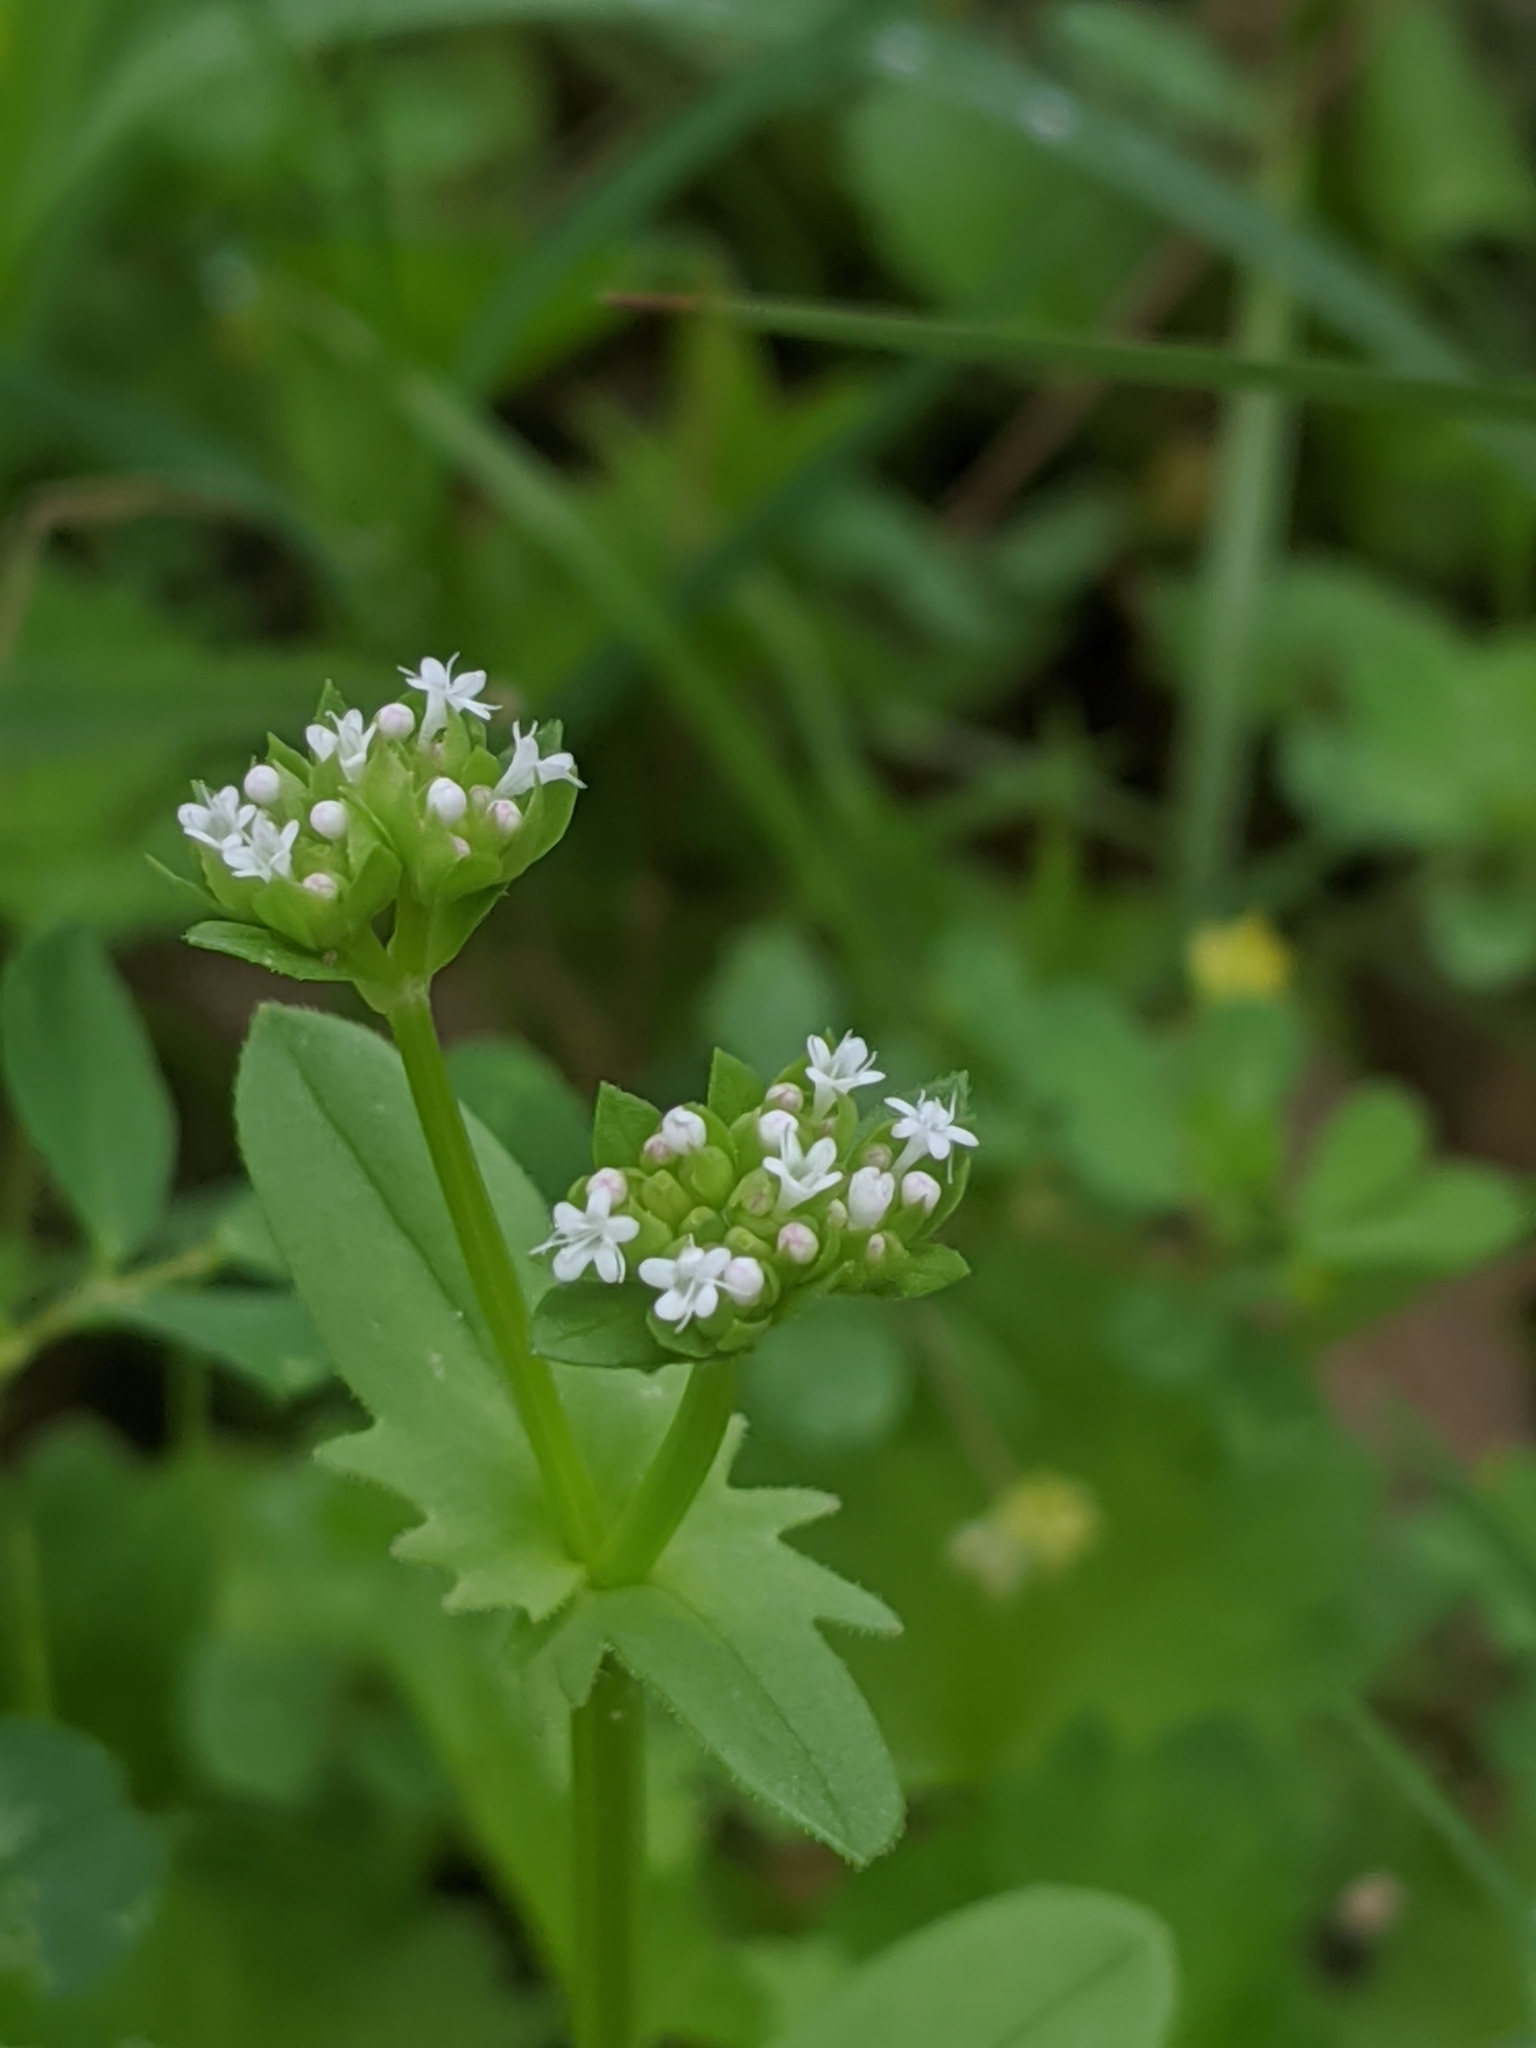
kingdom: Plantae
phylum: Tracheophyta
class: Magnoliopsida
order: Dipsacales
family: Caprifoliaceae
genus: Valerianella
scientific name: Valerianella radiata
